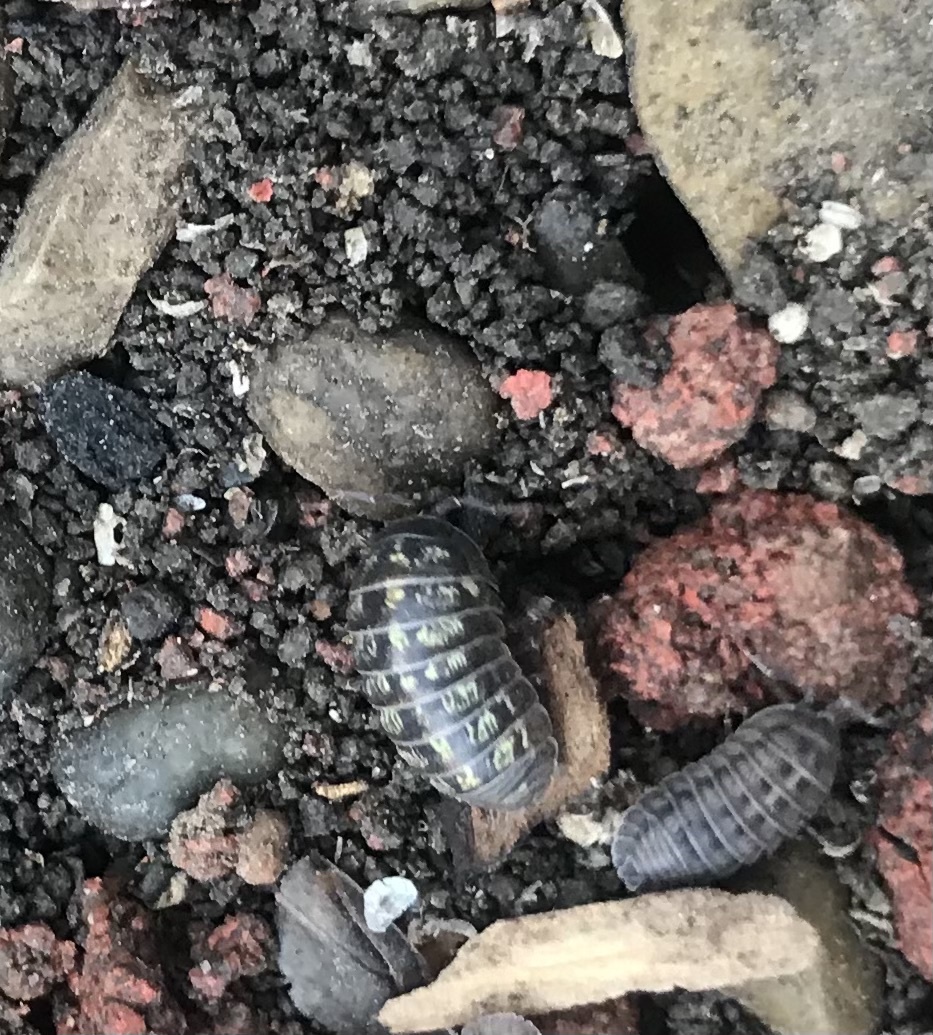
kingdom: Animalia
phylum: Arthropoda
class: Malacostraca
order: Isopoda
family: Armadillidiidae
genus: Armadillidium
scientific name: Armadillidium vulgare
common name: Common pill woodlouse
